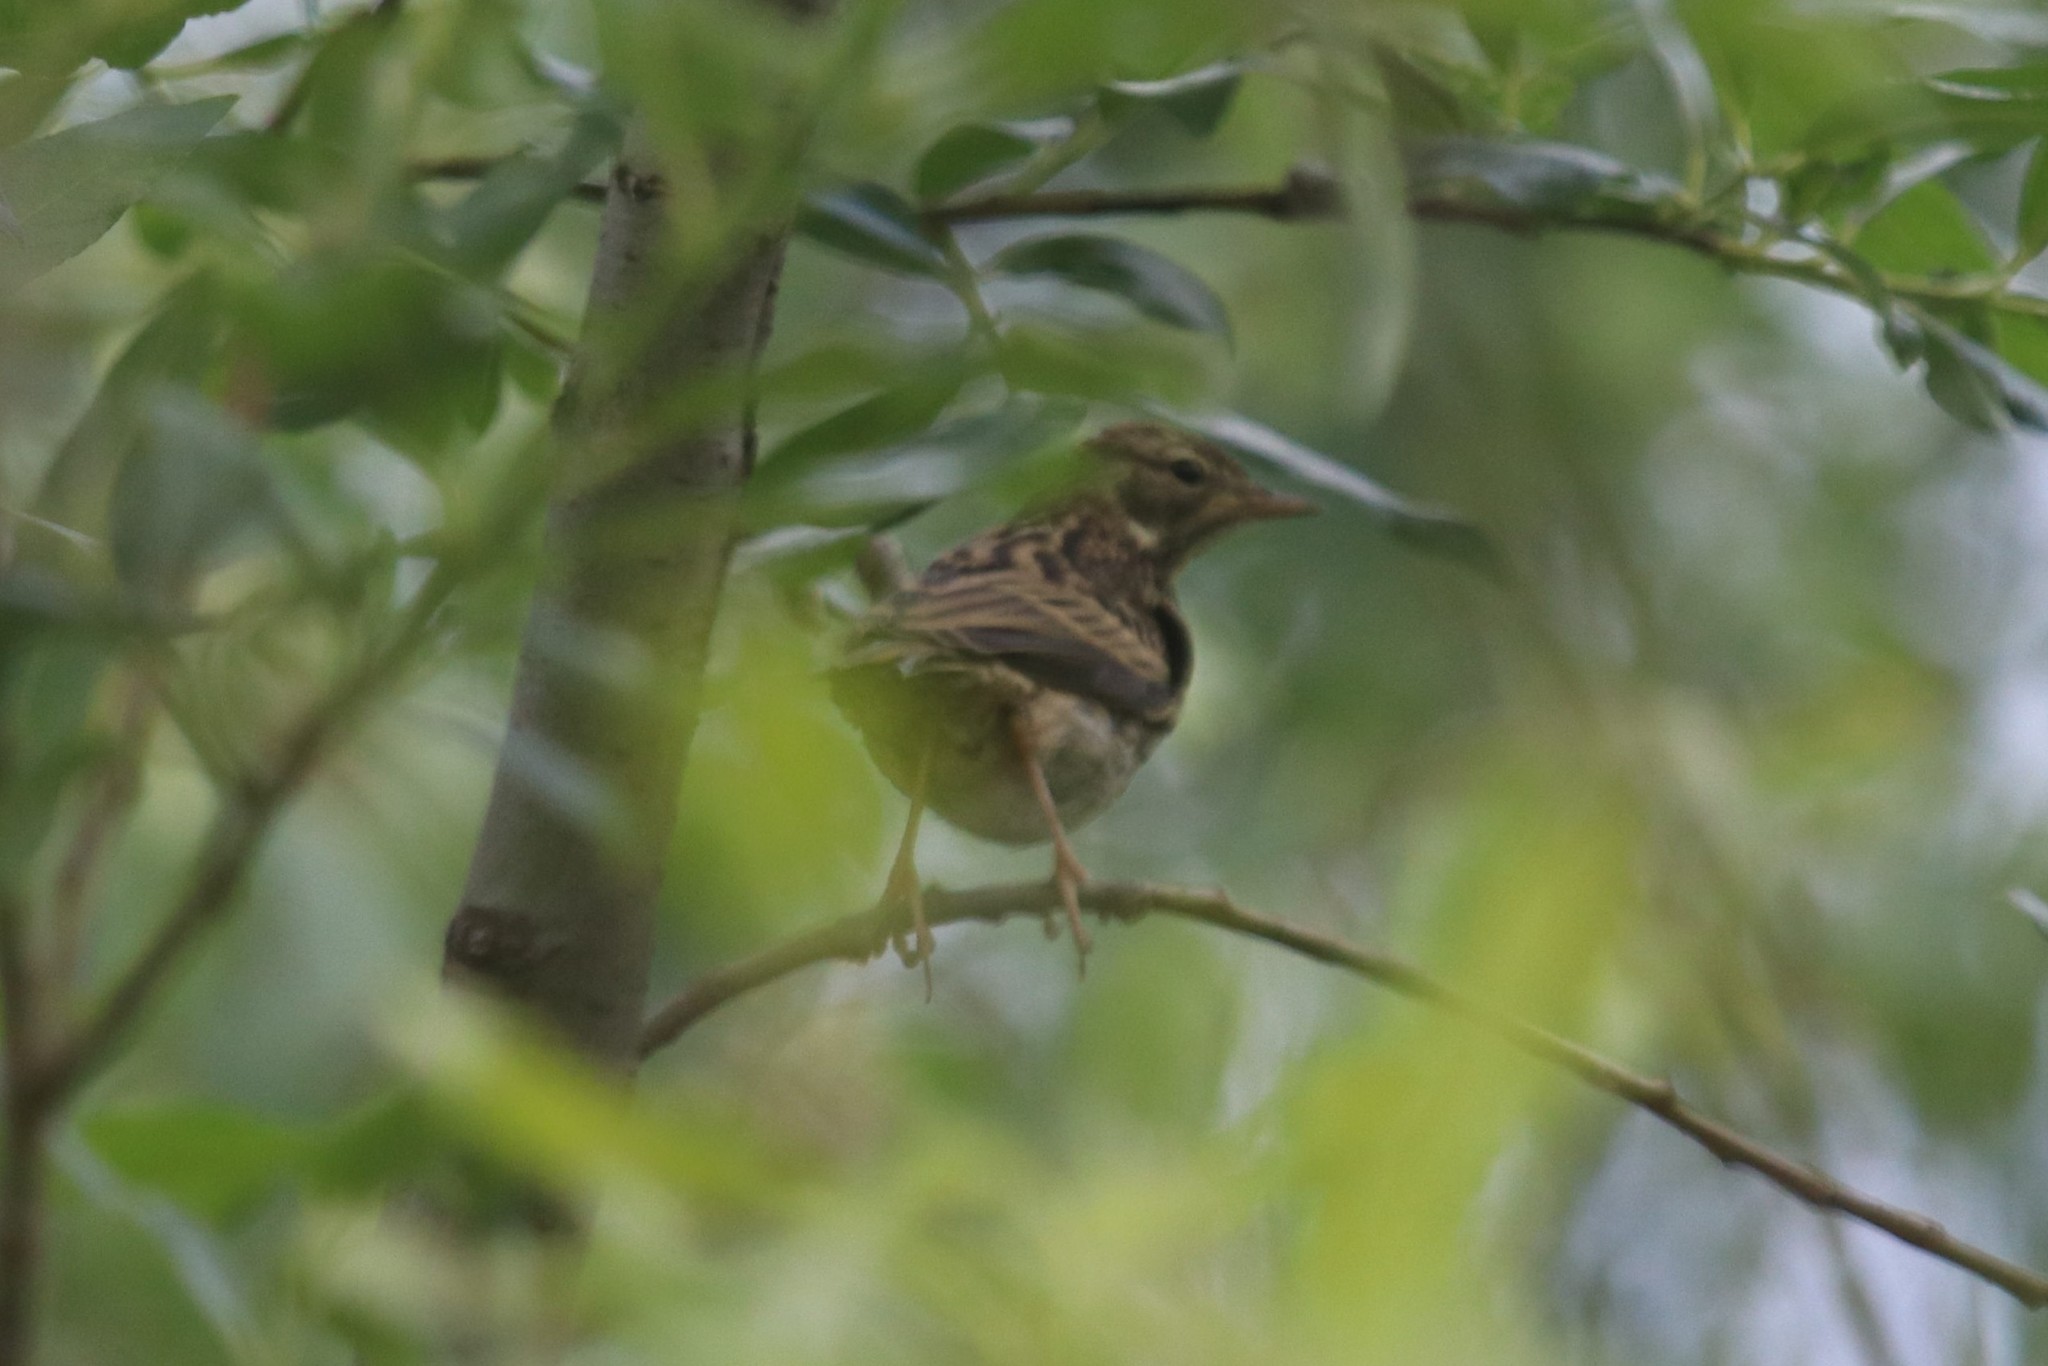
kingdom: Animalia
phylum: Chordata
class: Aves
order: Passeriformes
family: Motacillidae
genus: Anthus
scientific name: Anthus trivialis
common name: Tree pipit
